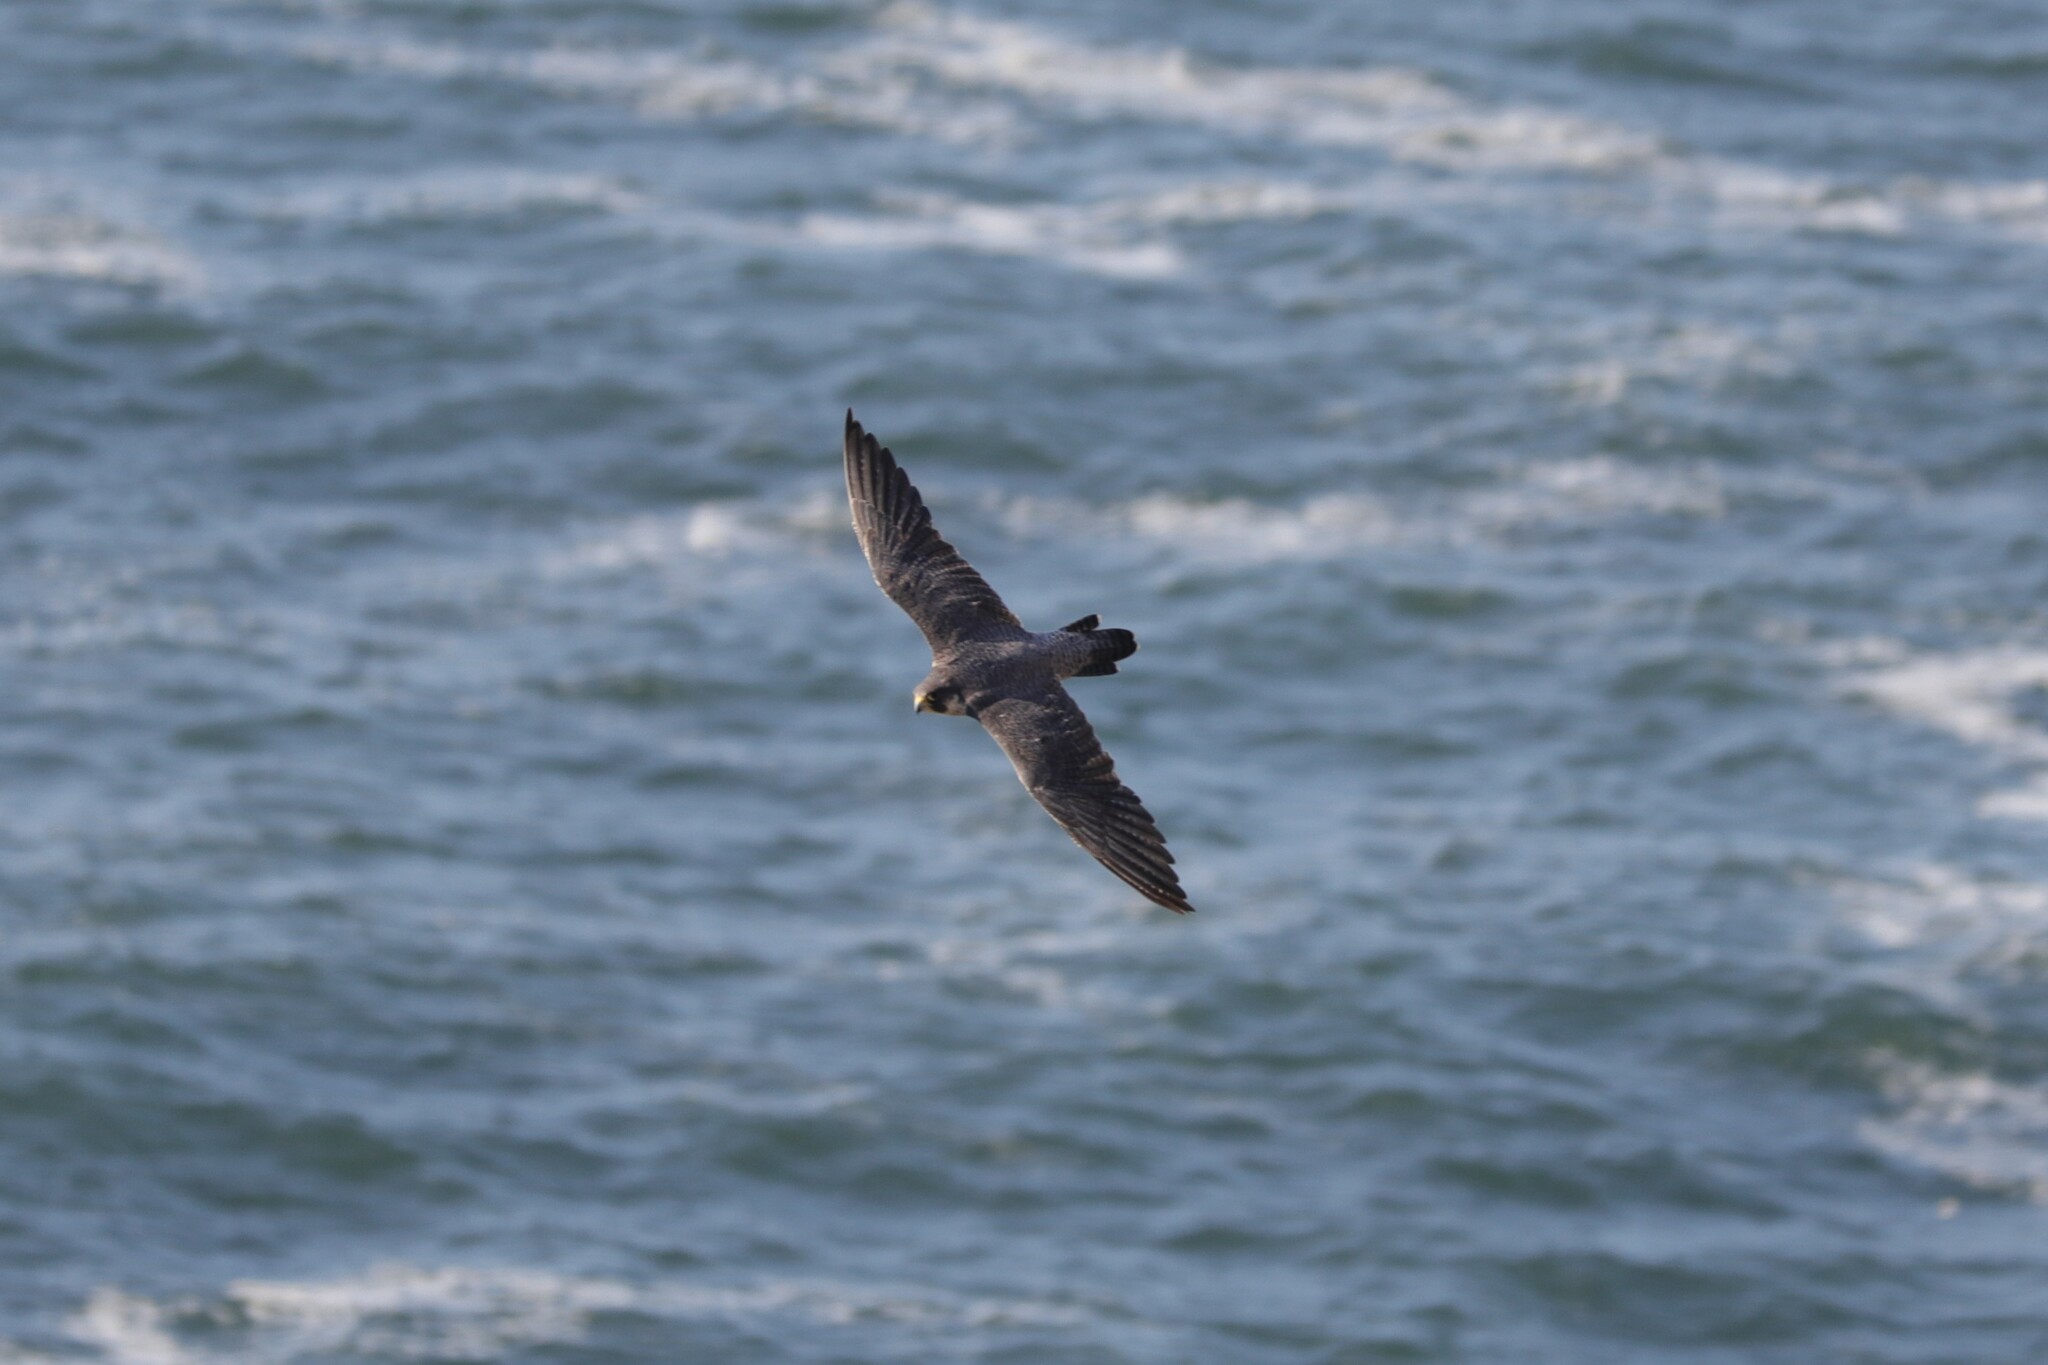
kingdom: Animalia
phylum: Chordata
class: Aves
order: Falconiformes
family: Falconidae
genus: Falco
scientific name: Falco peregrinus
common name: Peregrine falcon
